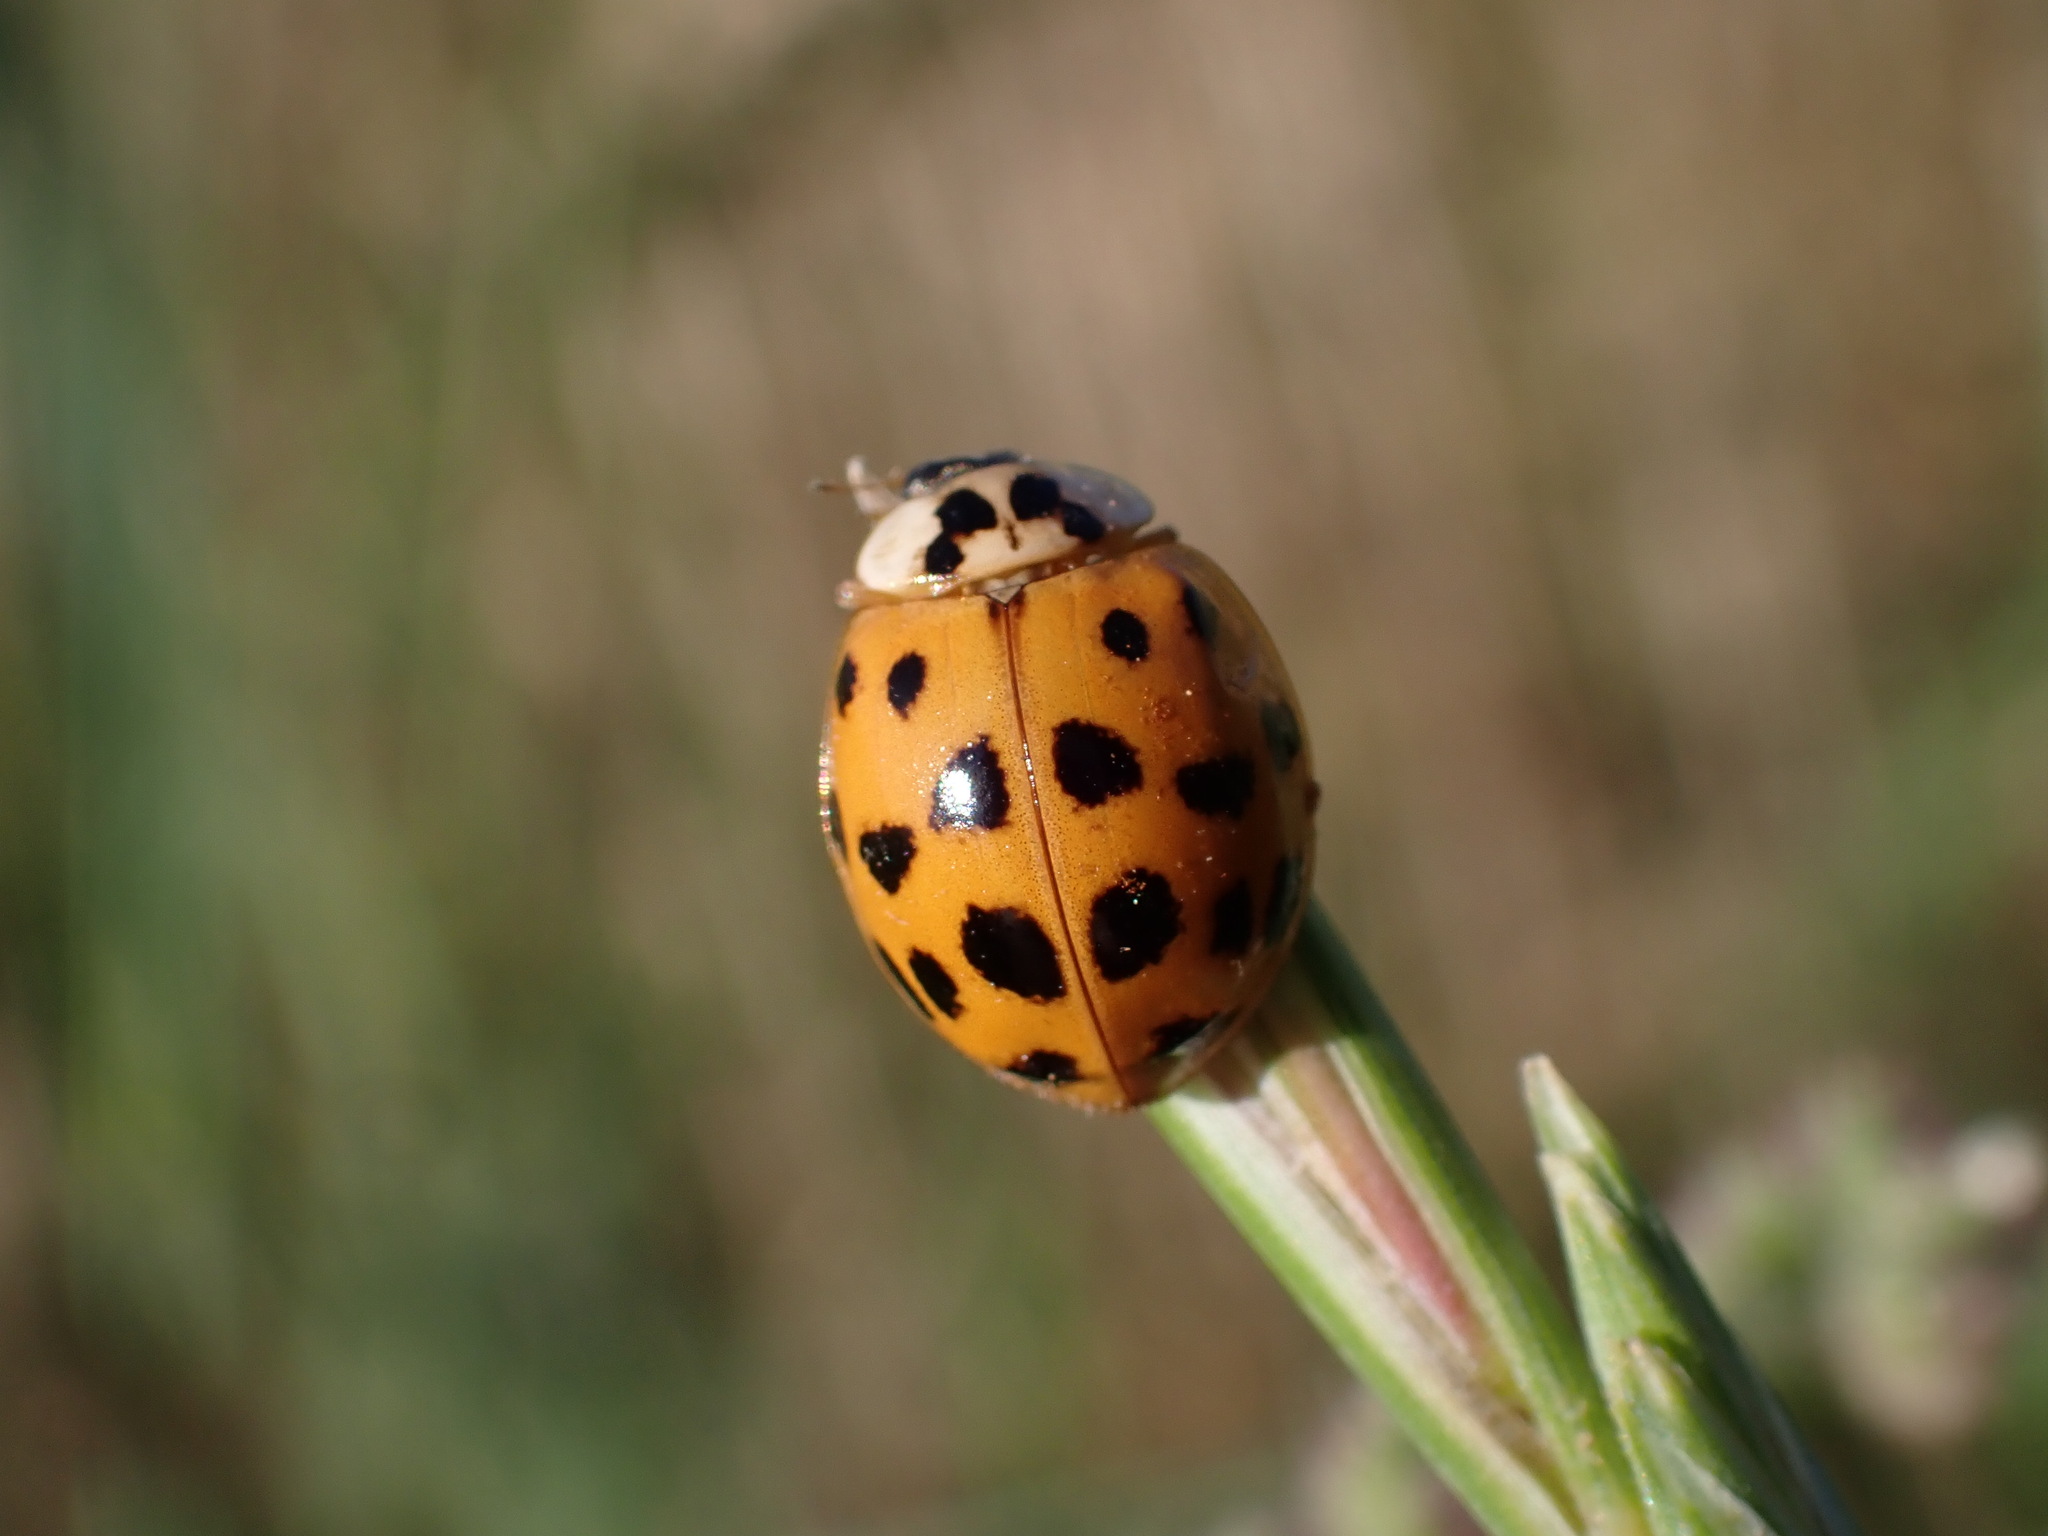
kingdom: Animalia
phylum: Arthropoda
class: Insecta
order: Coleoptera
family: Coccinellidae
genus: Harmonia
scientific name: Harmonia axyridis
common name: Harlequin ladybird
